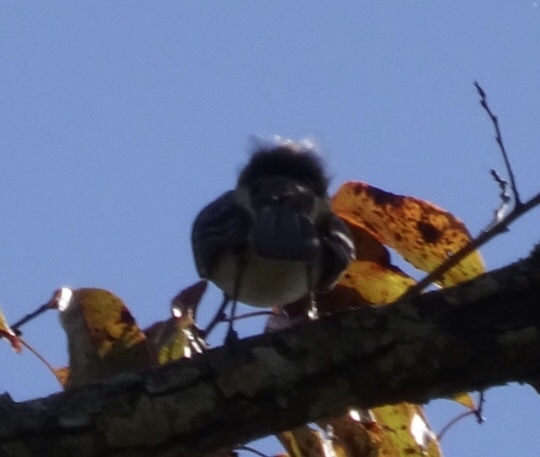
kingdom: Animalia
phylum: Chordata
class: Aves
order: Passeriformes
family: Mimidae
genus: Mimus
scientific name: Mimus polyglottos
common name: Northern mockingbird
